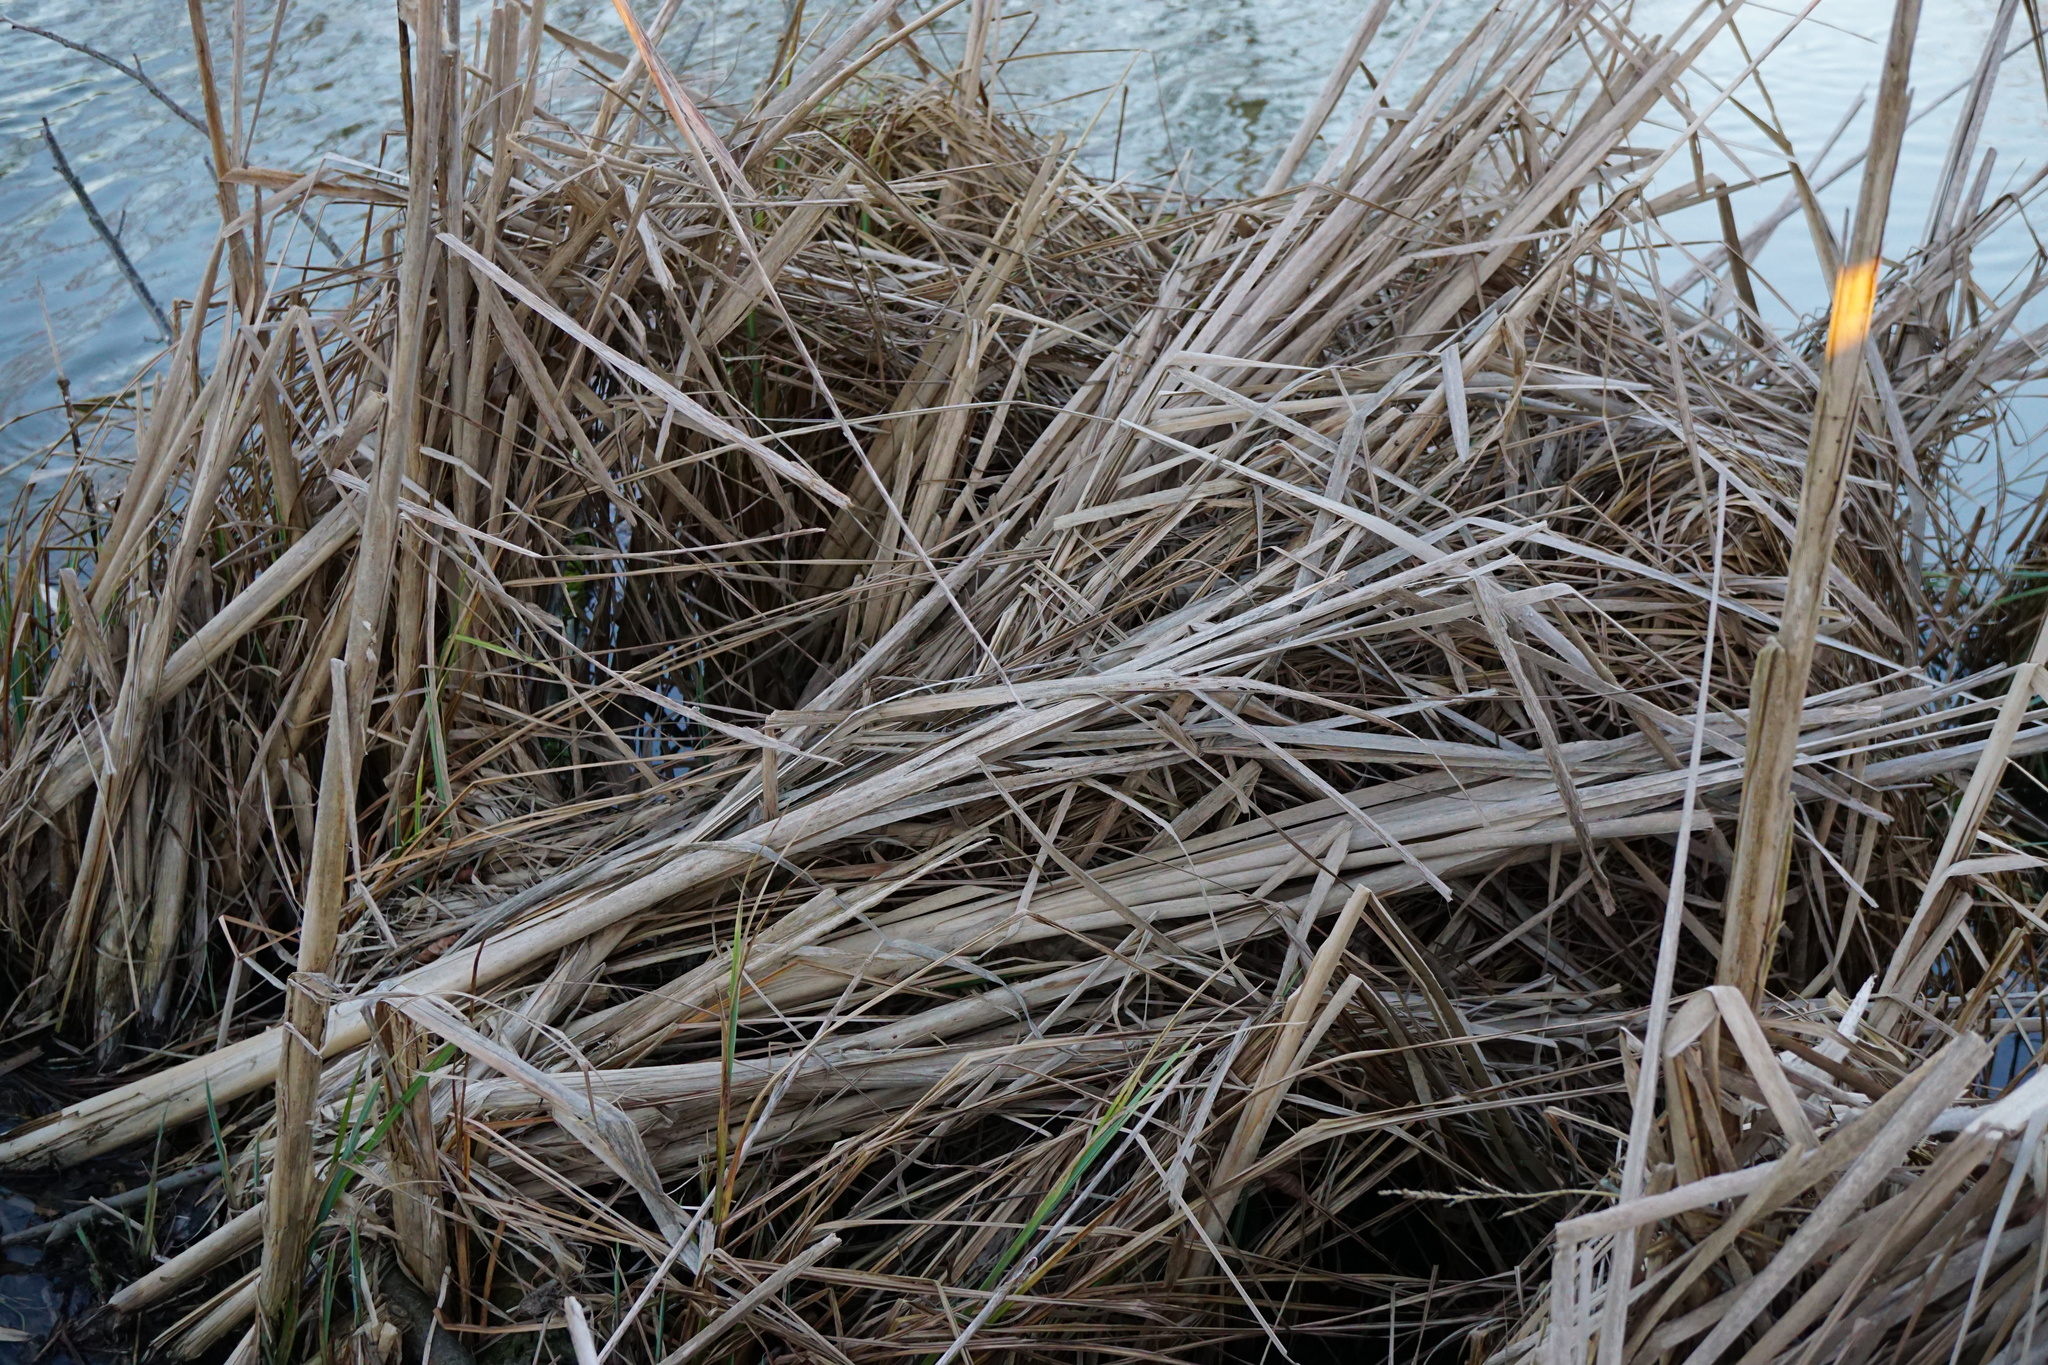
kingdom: Plantae
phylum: Tracheophyta
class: Liliopsida
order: Poales
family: Typhaceae
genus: Typha
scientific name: Typha latifolia
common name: Broadleaf cattail
